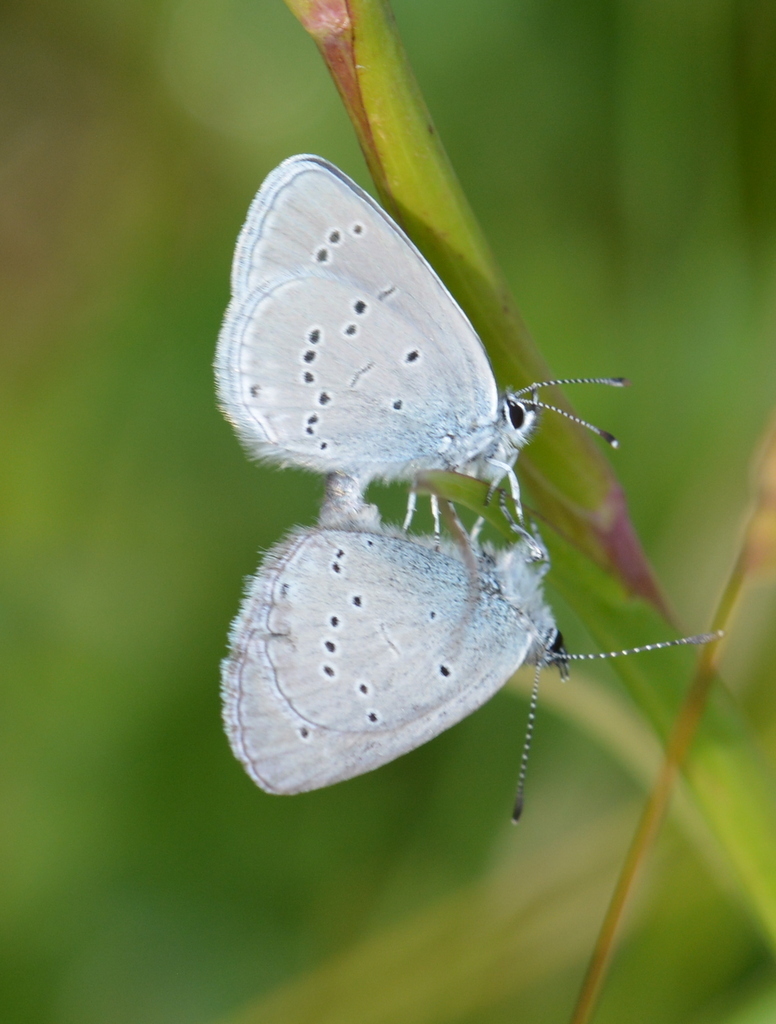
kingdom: Animalia
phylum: Arthropoda
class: Insecta
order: Lepidoptera
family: Lycaenidae
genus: Cupido
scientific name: Cupido minimus
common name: Small blue
